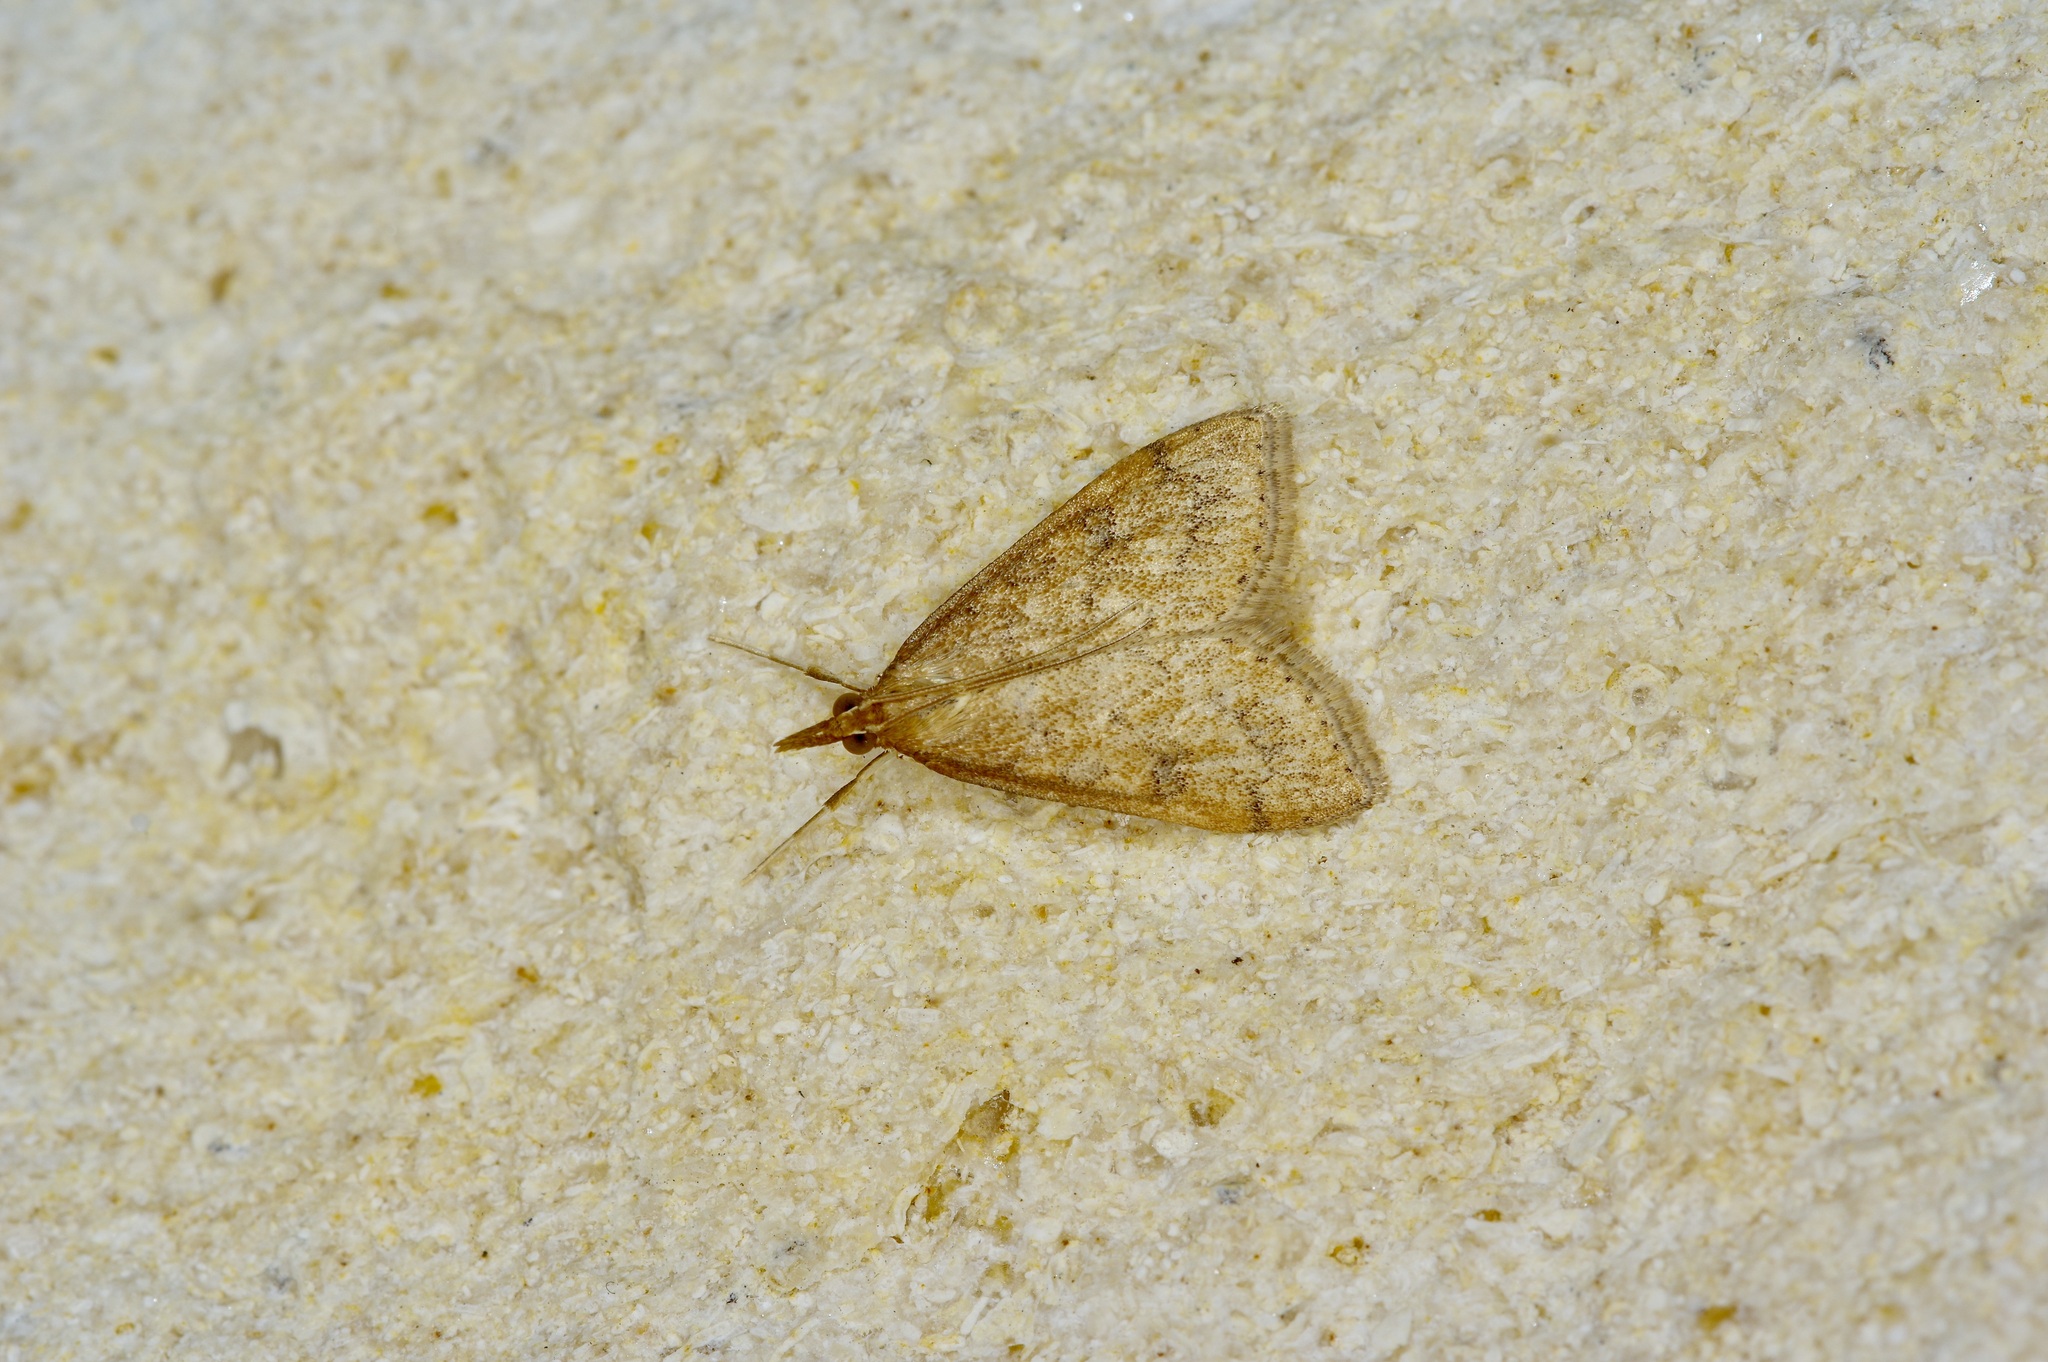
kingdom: Animalia
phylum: Arthropoda
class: Insecta
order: Lepidoptera
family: Crambidae
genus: Udea
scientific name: Udea rubigalis
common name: Celery leaftier moth
